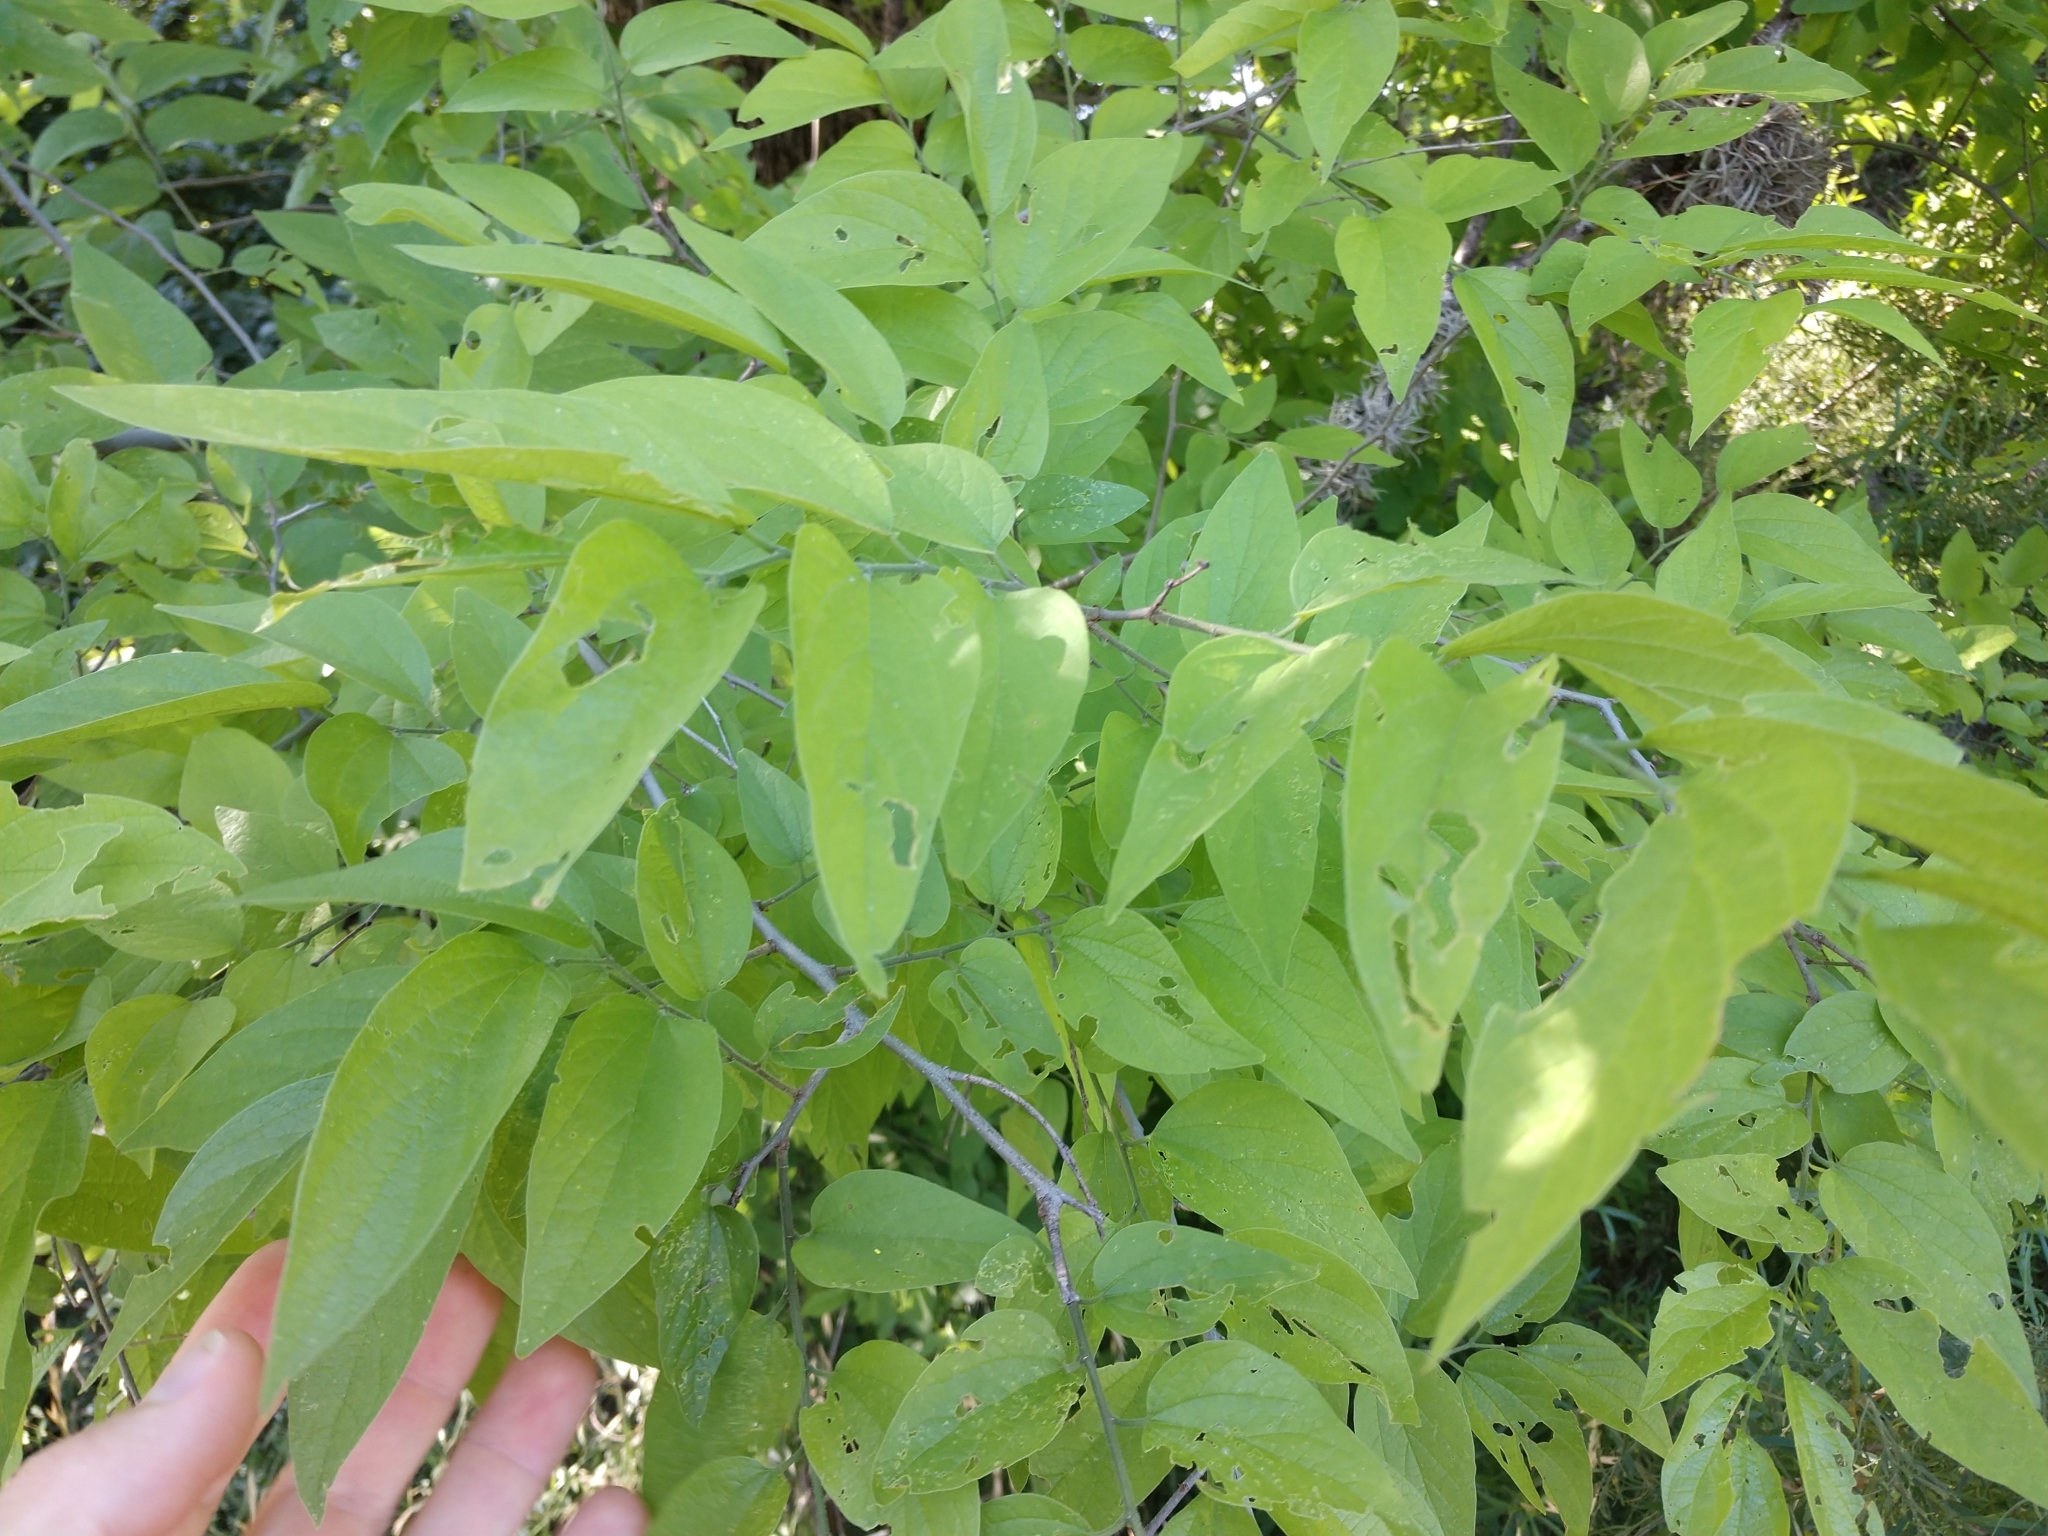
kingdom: Plantae
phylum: Tracheophyta
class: Magnoliopsida
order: Rosales
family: Cannabaceae
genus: Celtis
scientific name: Celtis laevigata
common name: Sugarberry
